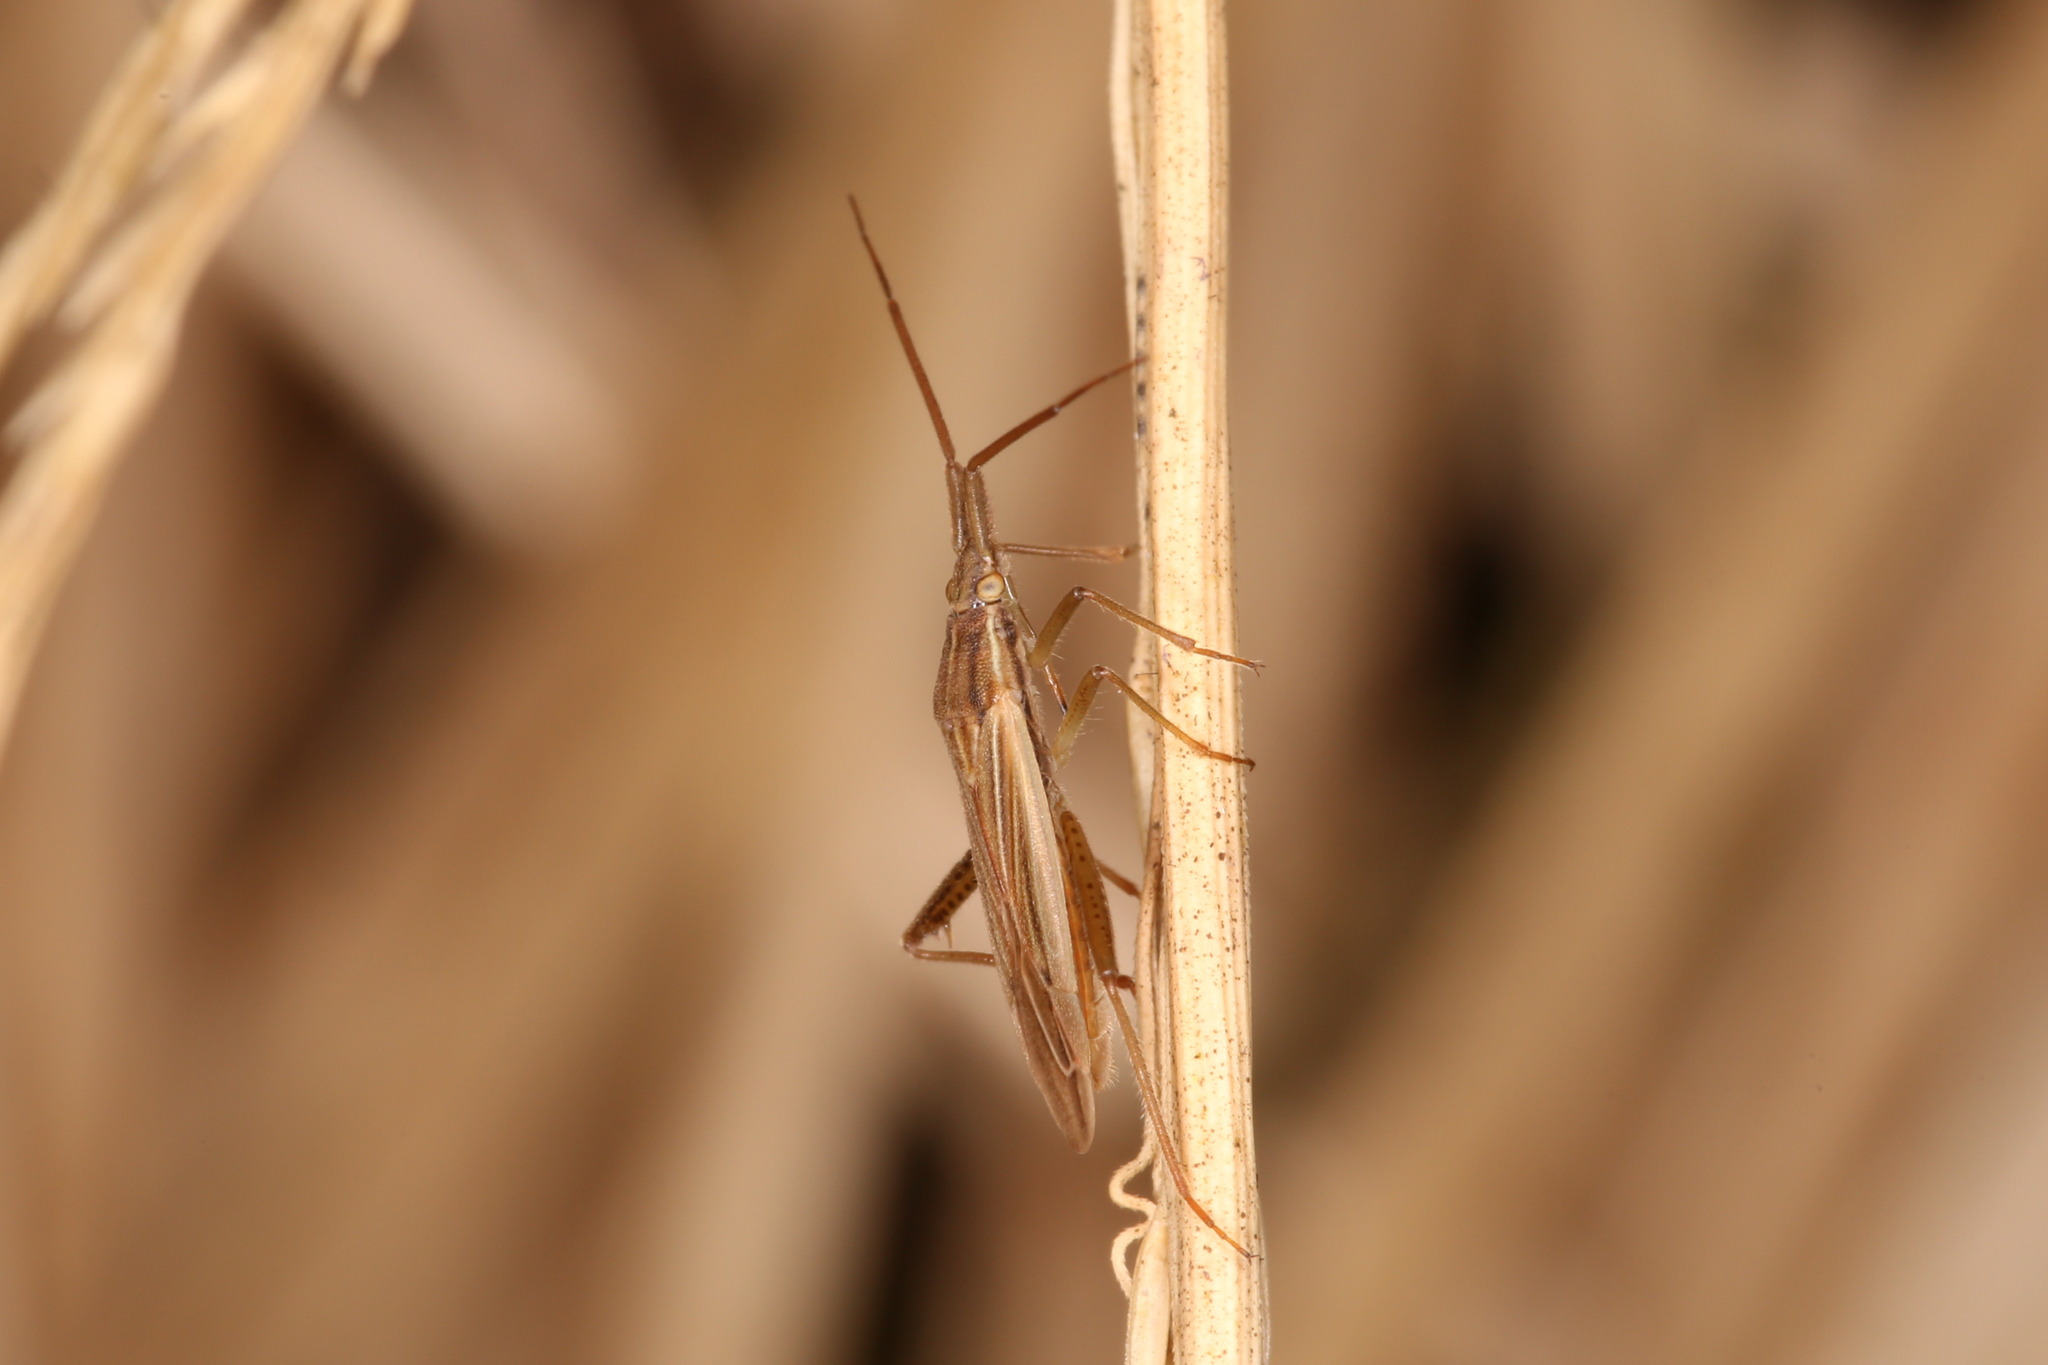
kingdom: Animalia
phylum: Arthropoda
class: Insecta
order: Hemiptera
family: Miridae
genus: Stenodema
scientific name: Stenodema calcarata
